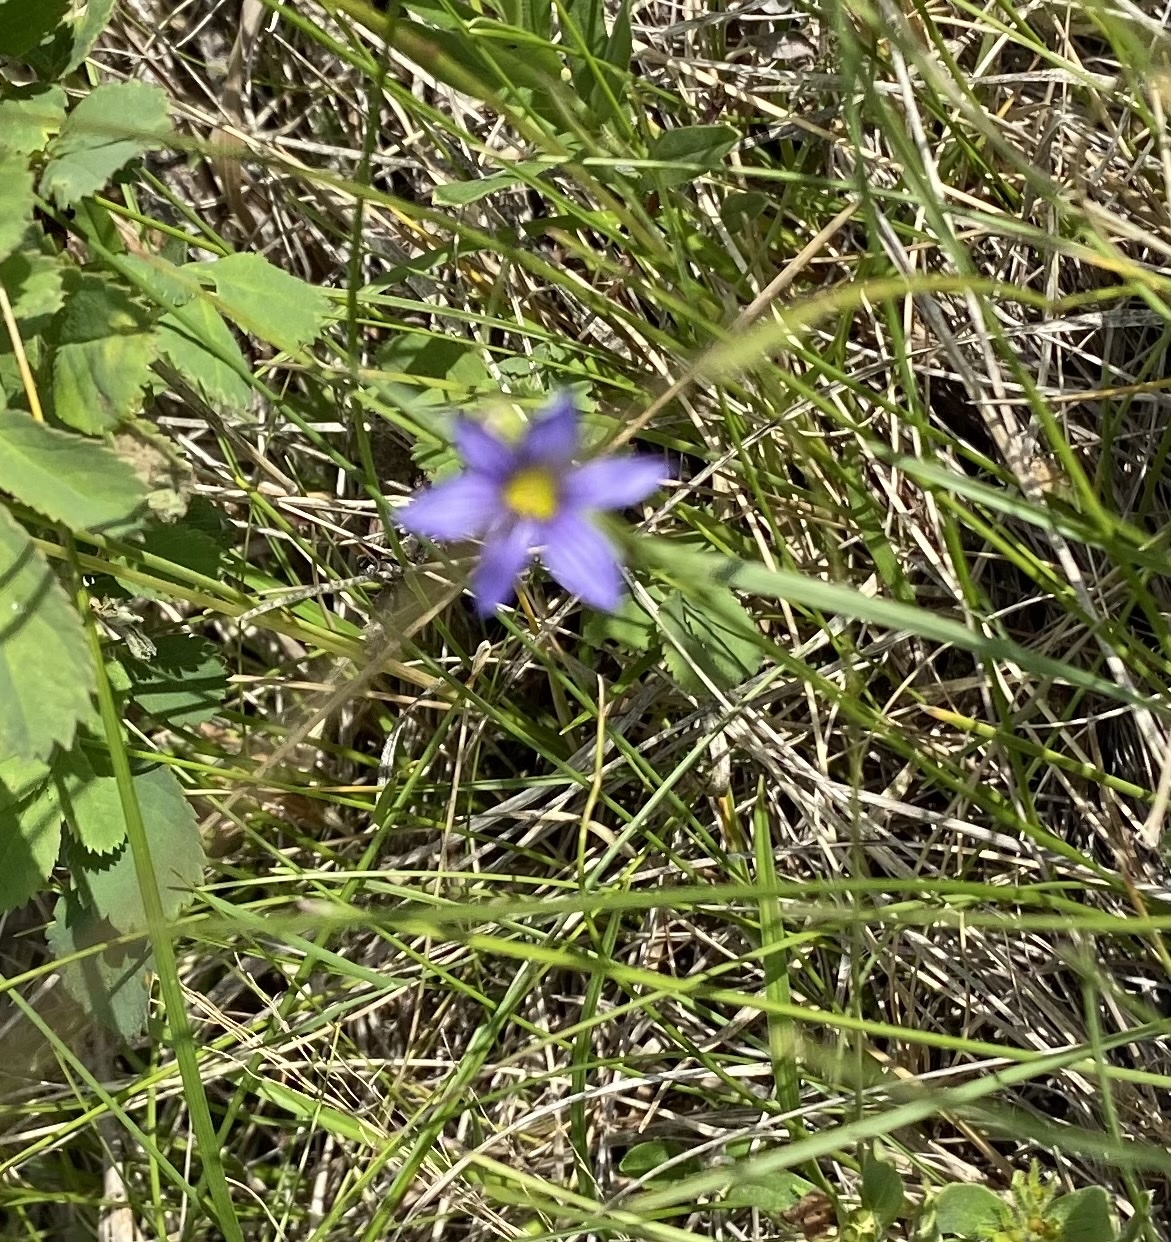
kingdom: Plantae
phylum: Tracheophyta
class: Liliopsida
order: Asparagales
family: Iridaceae
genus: Sisyrinchium
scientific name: Sisyrinchium montanum
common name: American blue-eyed-grass
